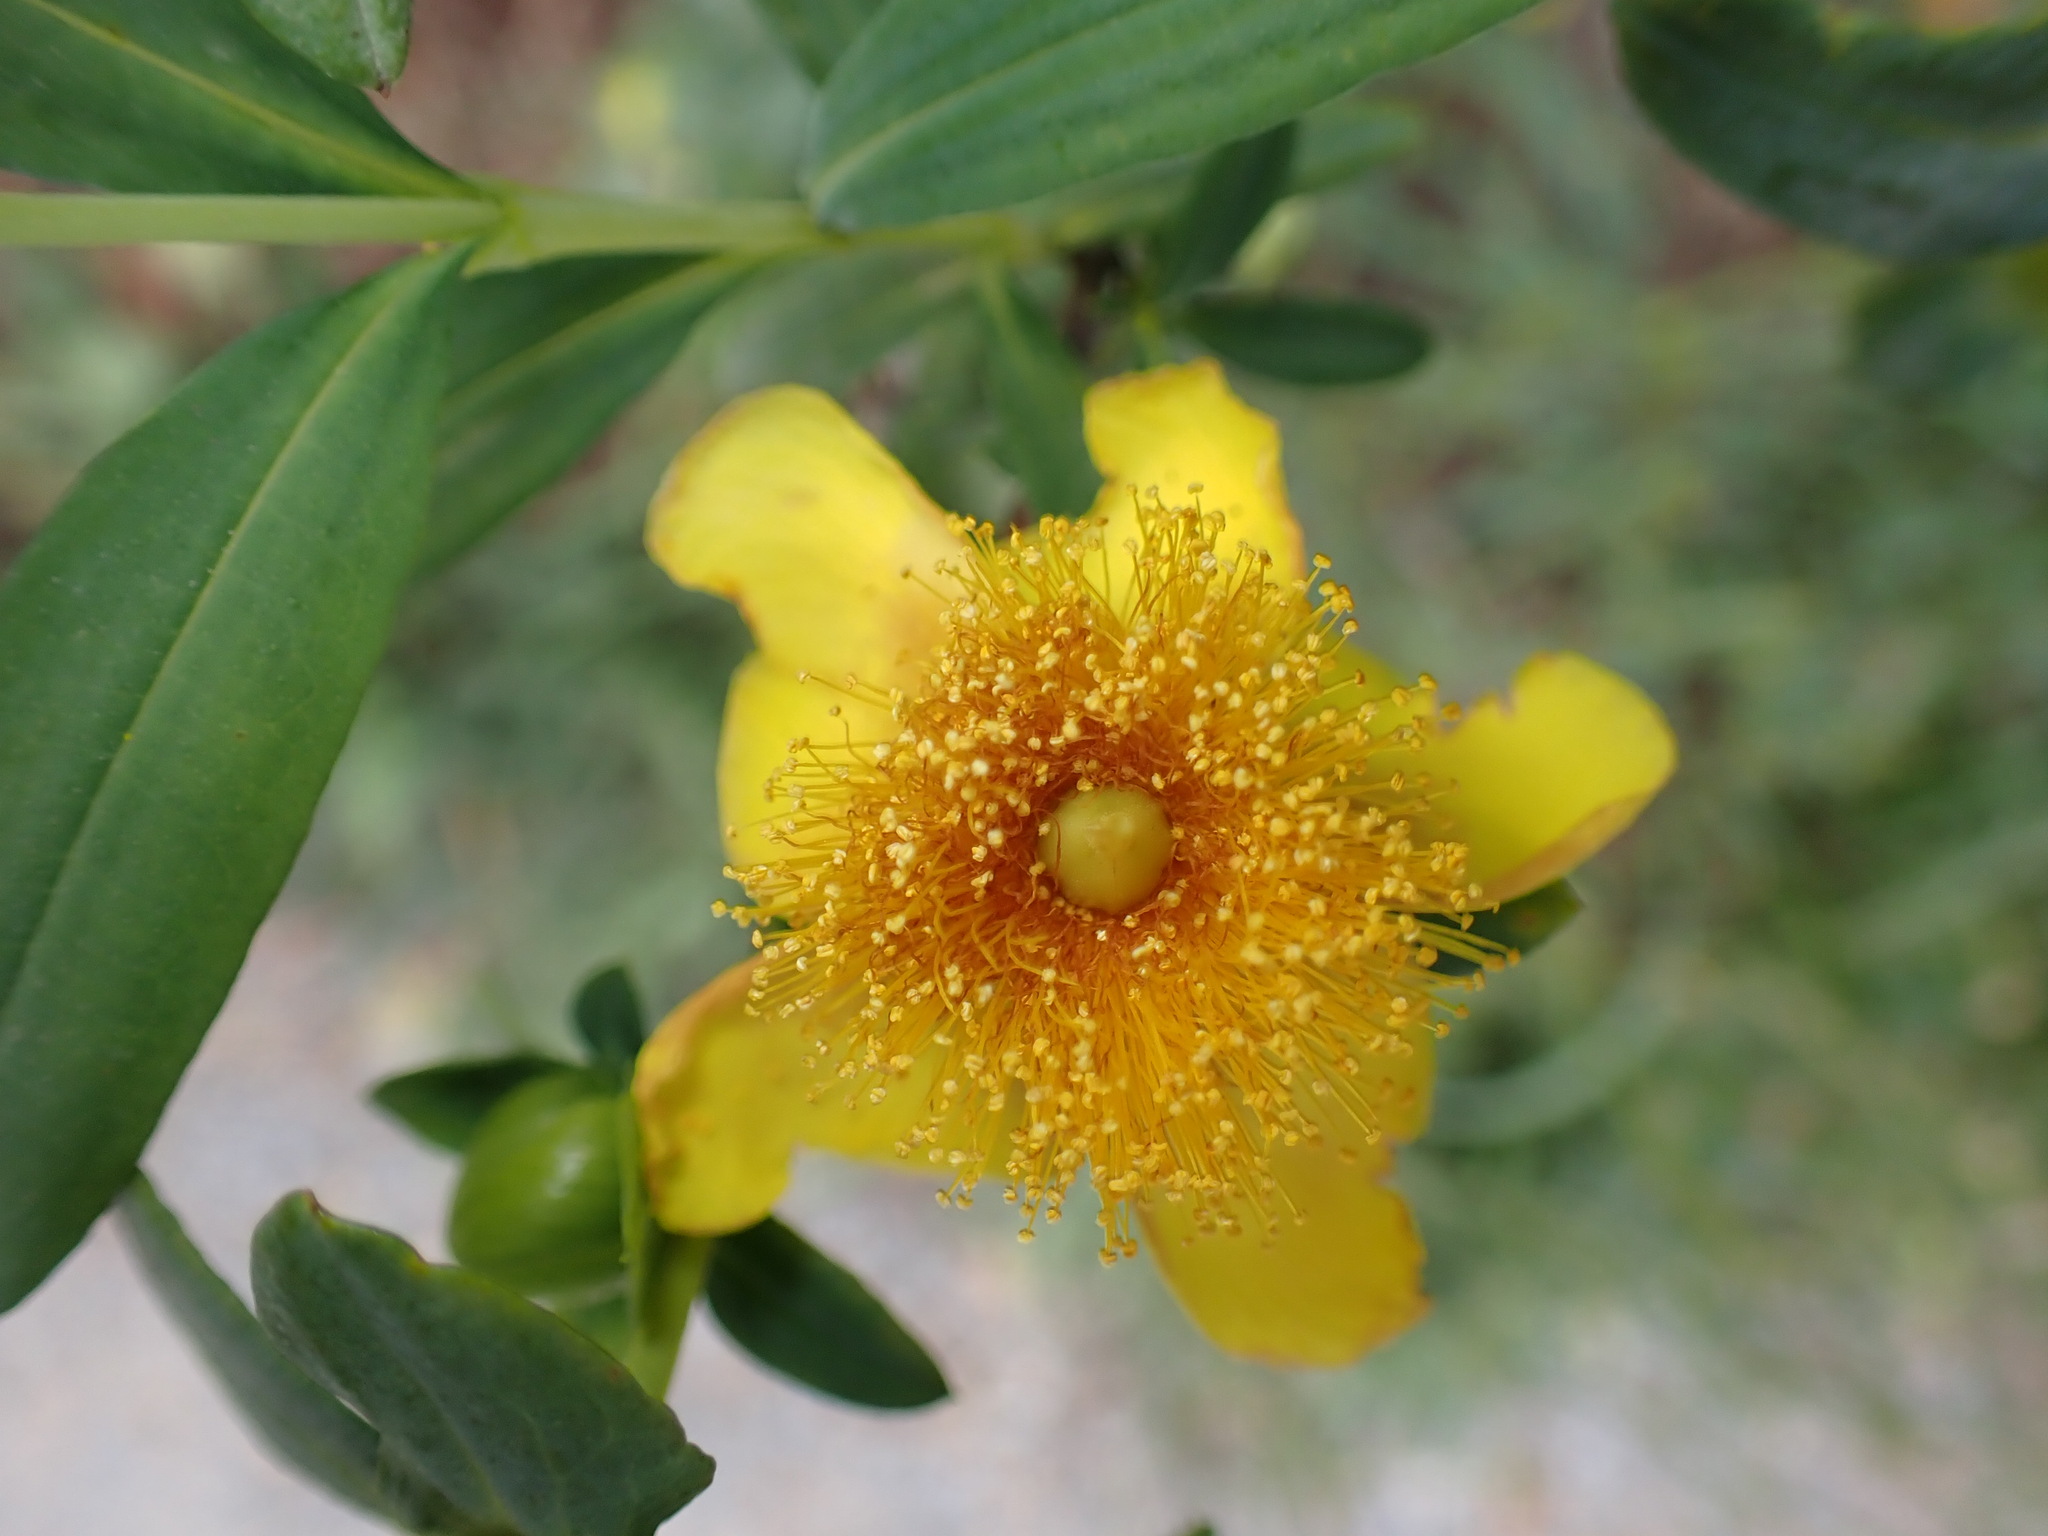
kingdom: Plantae
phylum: Tracheophyta
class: Magnoliopsida
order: Malpighiales
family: Hypericaceae
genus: Hypericum
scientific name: Hypericum prolificum
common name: Shrubby st. john's-wort
